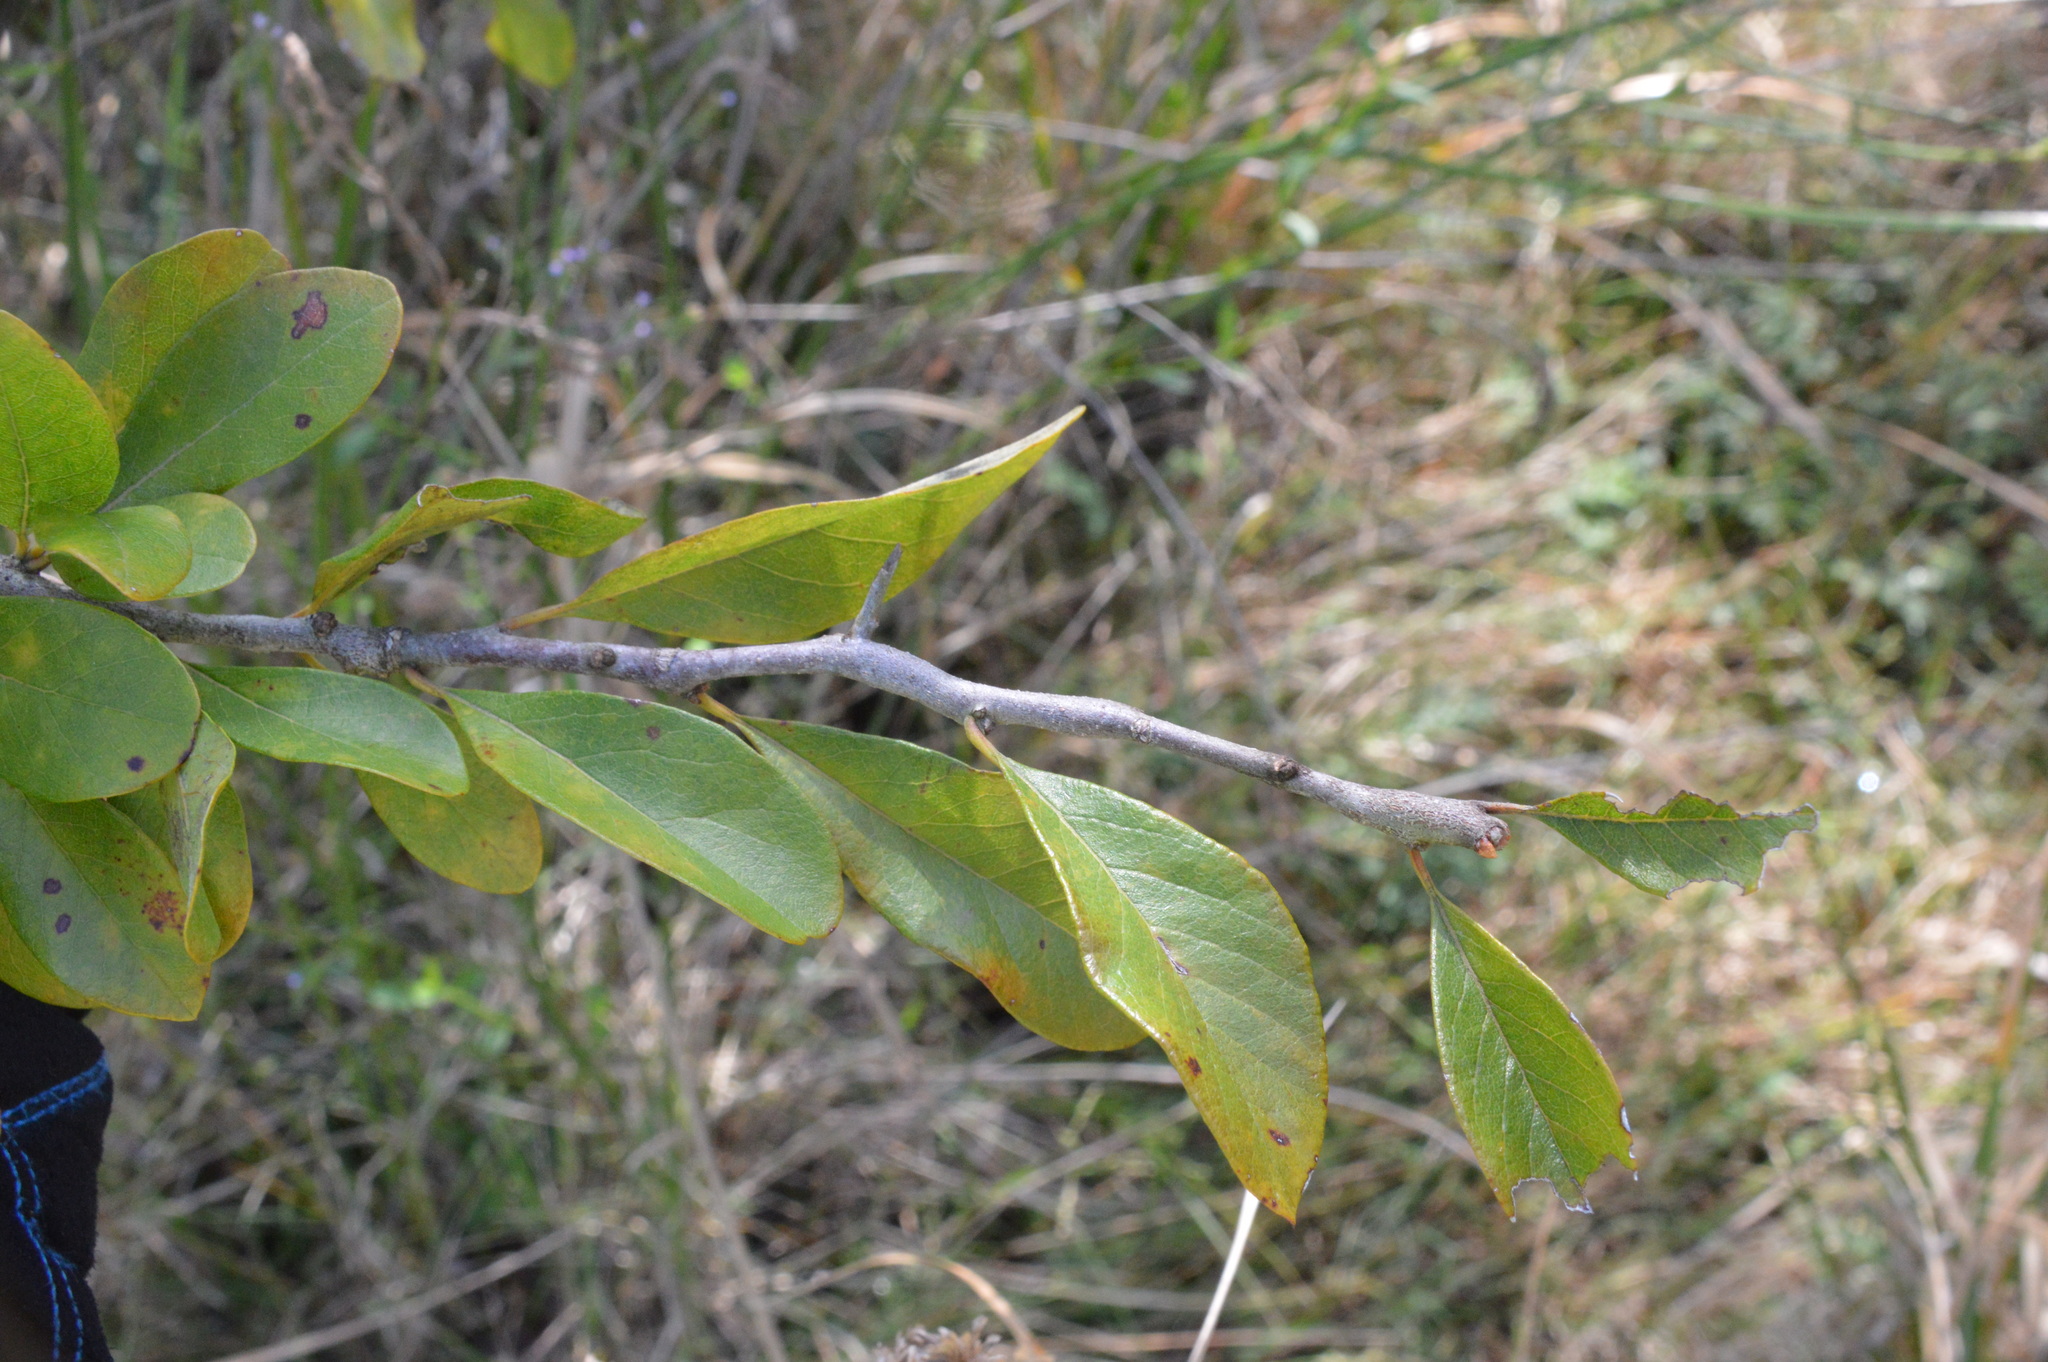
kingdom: Plantae
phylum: Tracheophyta
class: Magnoliopsida
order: Ericales
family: Sapotaceae
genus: Sideroxylon
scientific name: Sideroxylon lanuginosum
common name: Chittamwood
